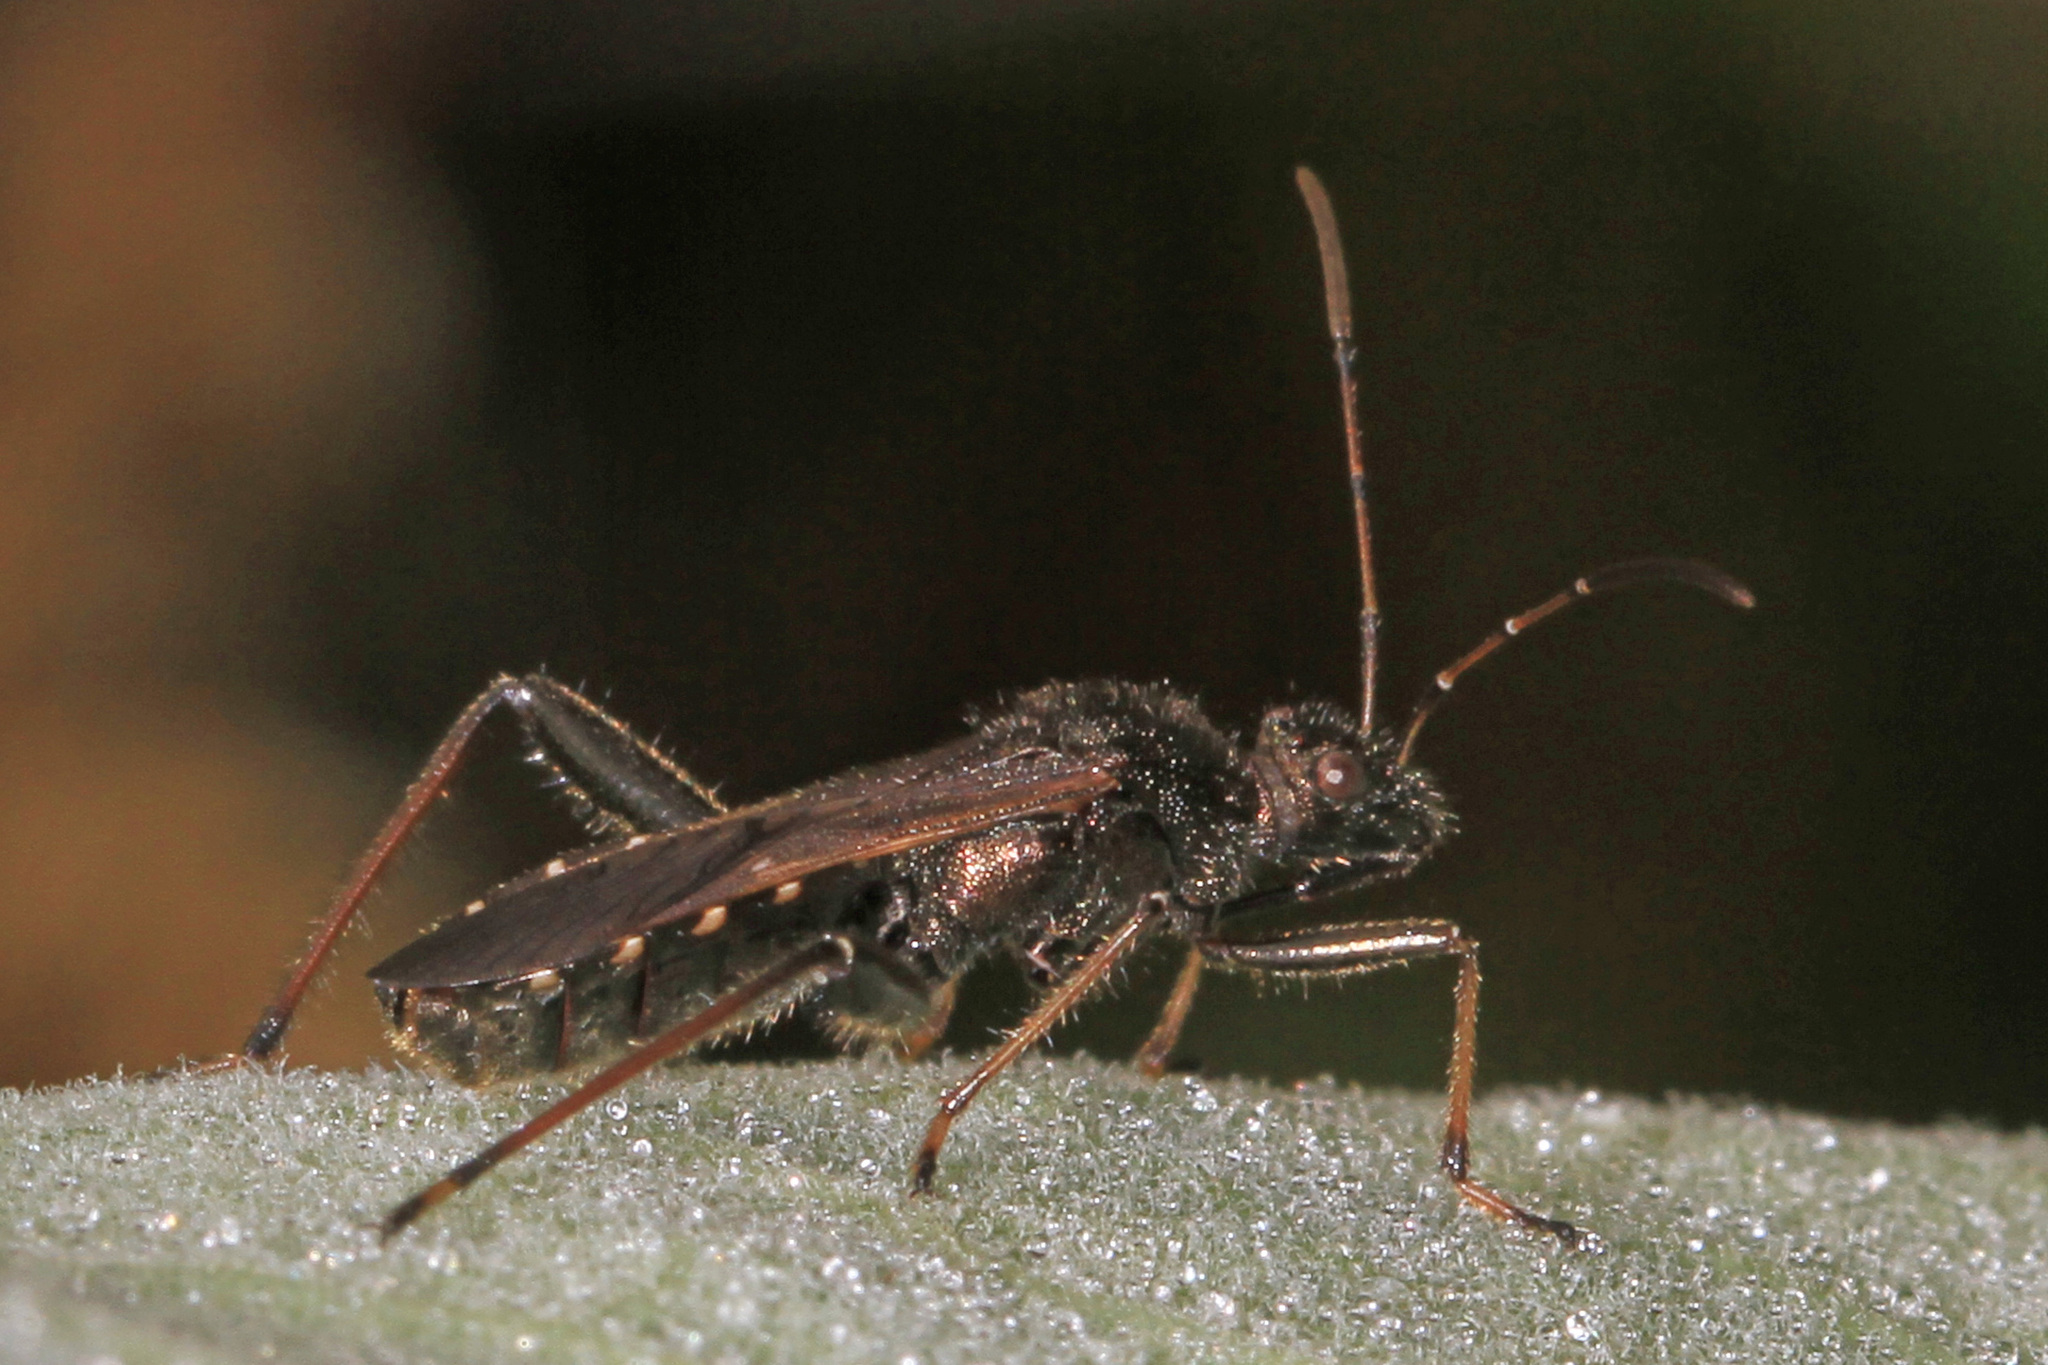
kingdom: Animalia
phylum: Arthropoda
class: Insecta
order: Hemiptera
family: Alydidae
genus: Alydus
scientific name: Alydus eurinus
